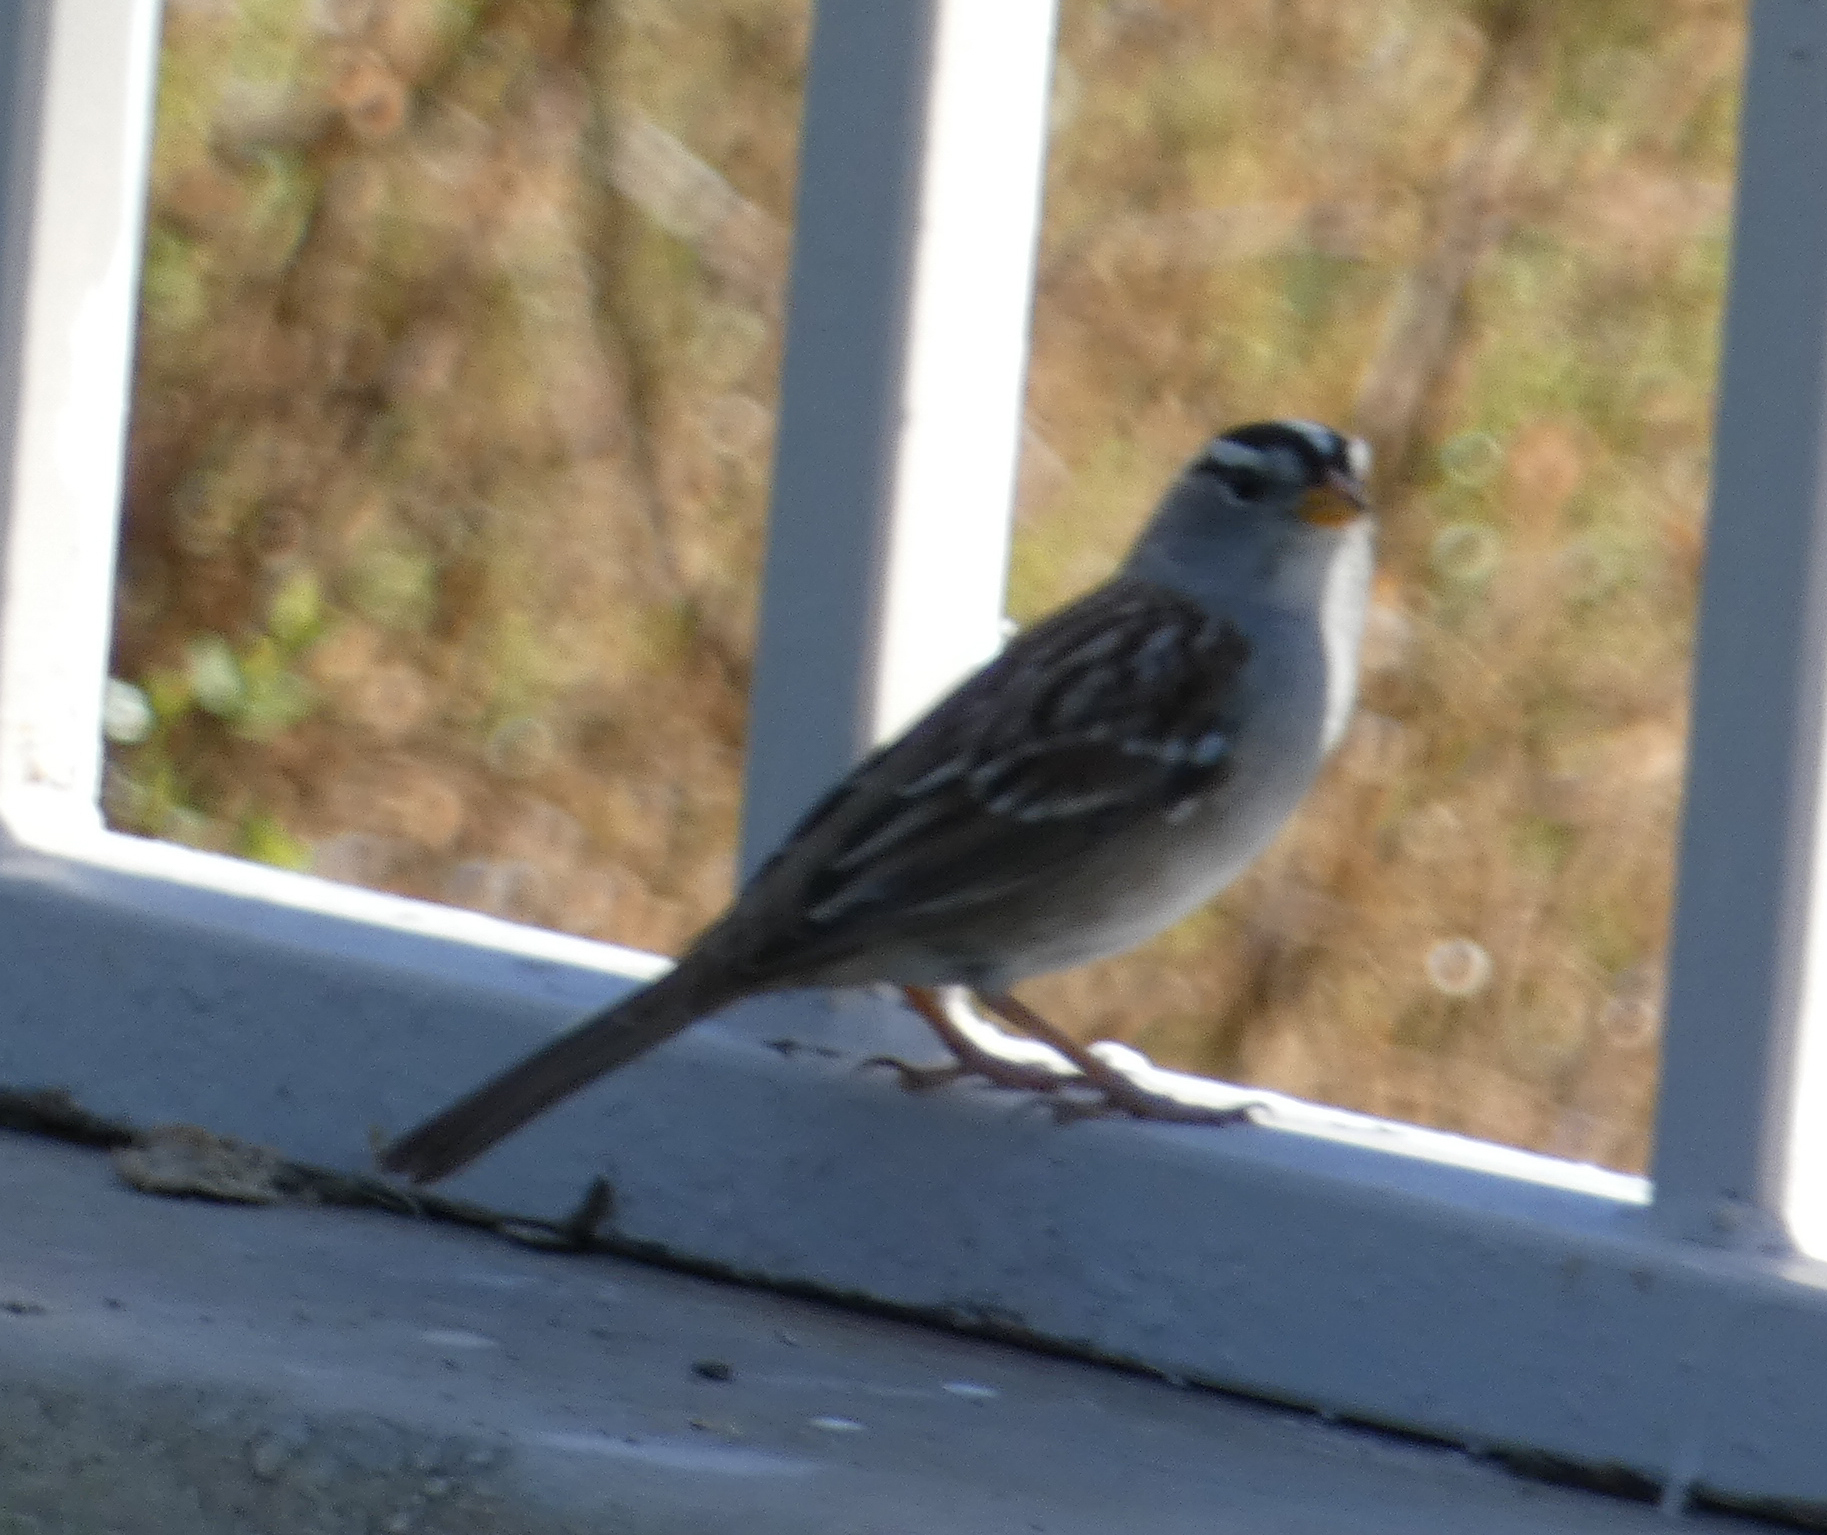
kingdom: Animalia
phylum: Chordata
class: Aves
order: Passeriformes
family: Passerellidae
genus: Zonotrichia
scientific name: Zonotrichia leucophrys
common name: White-crowned sparrow
